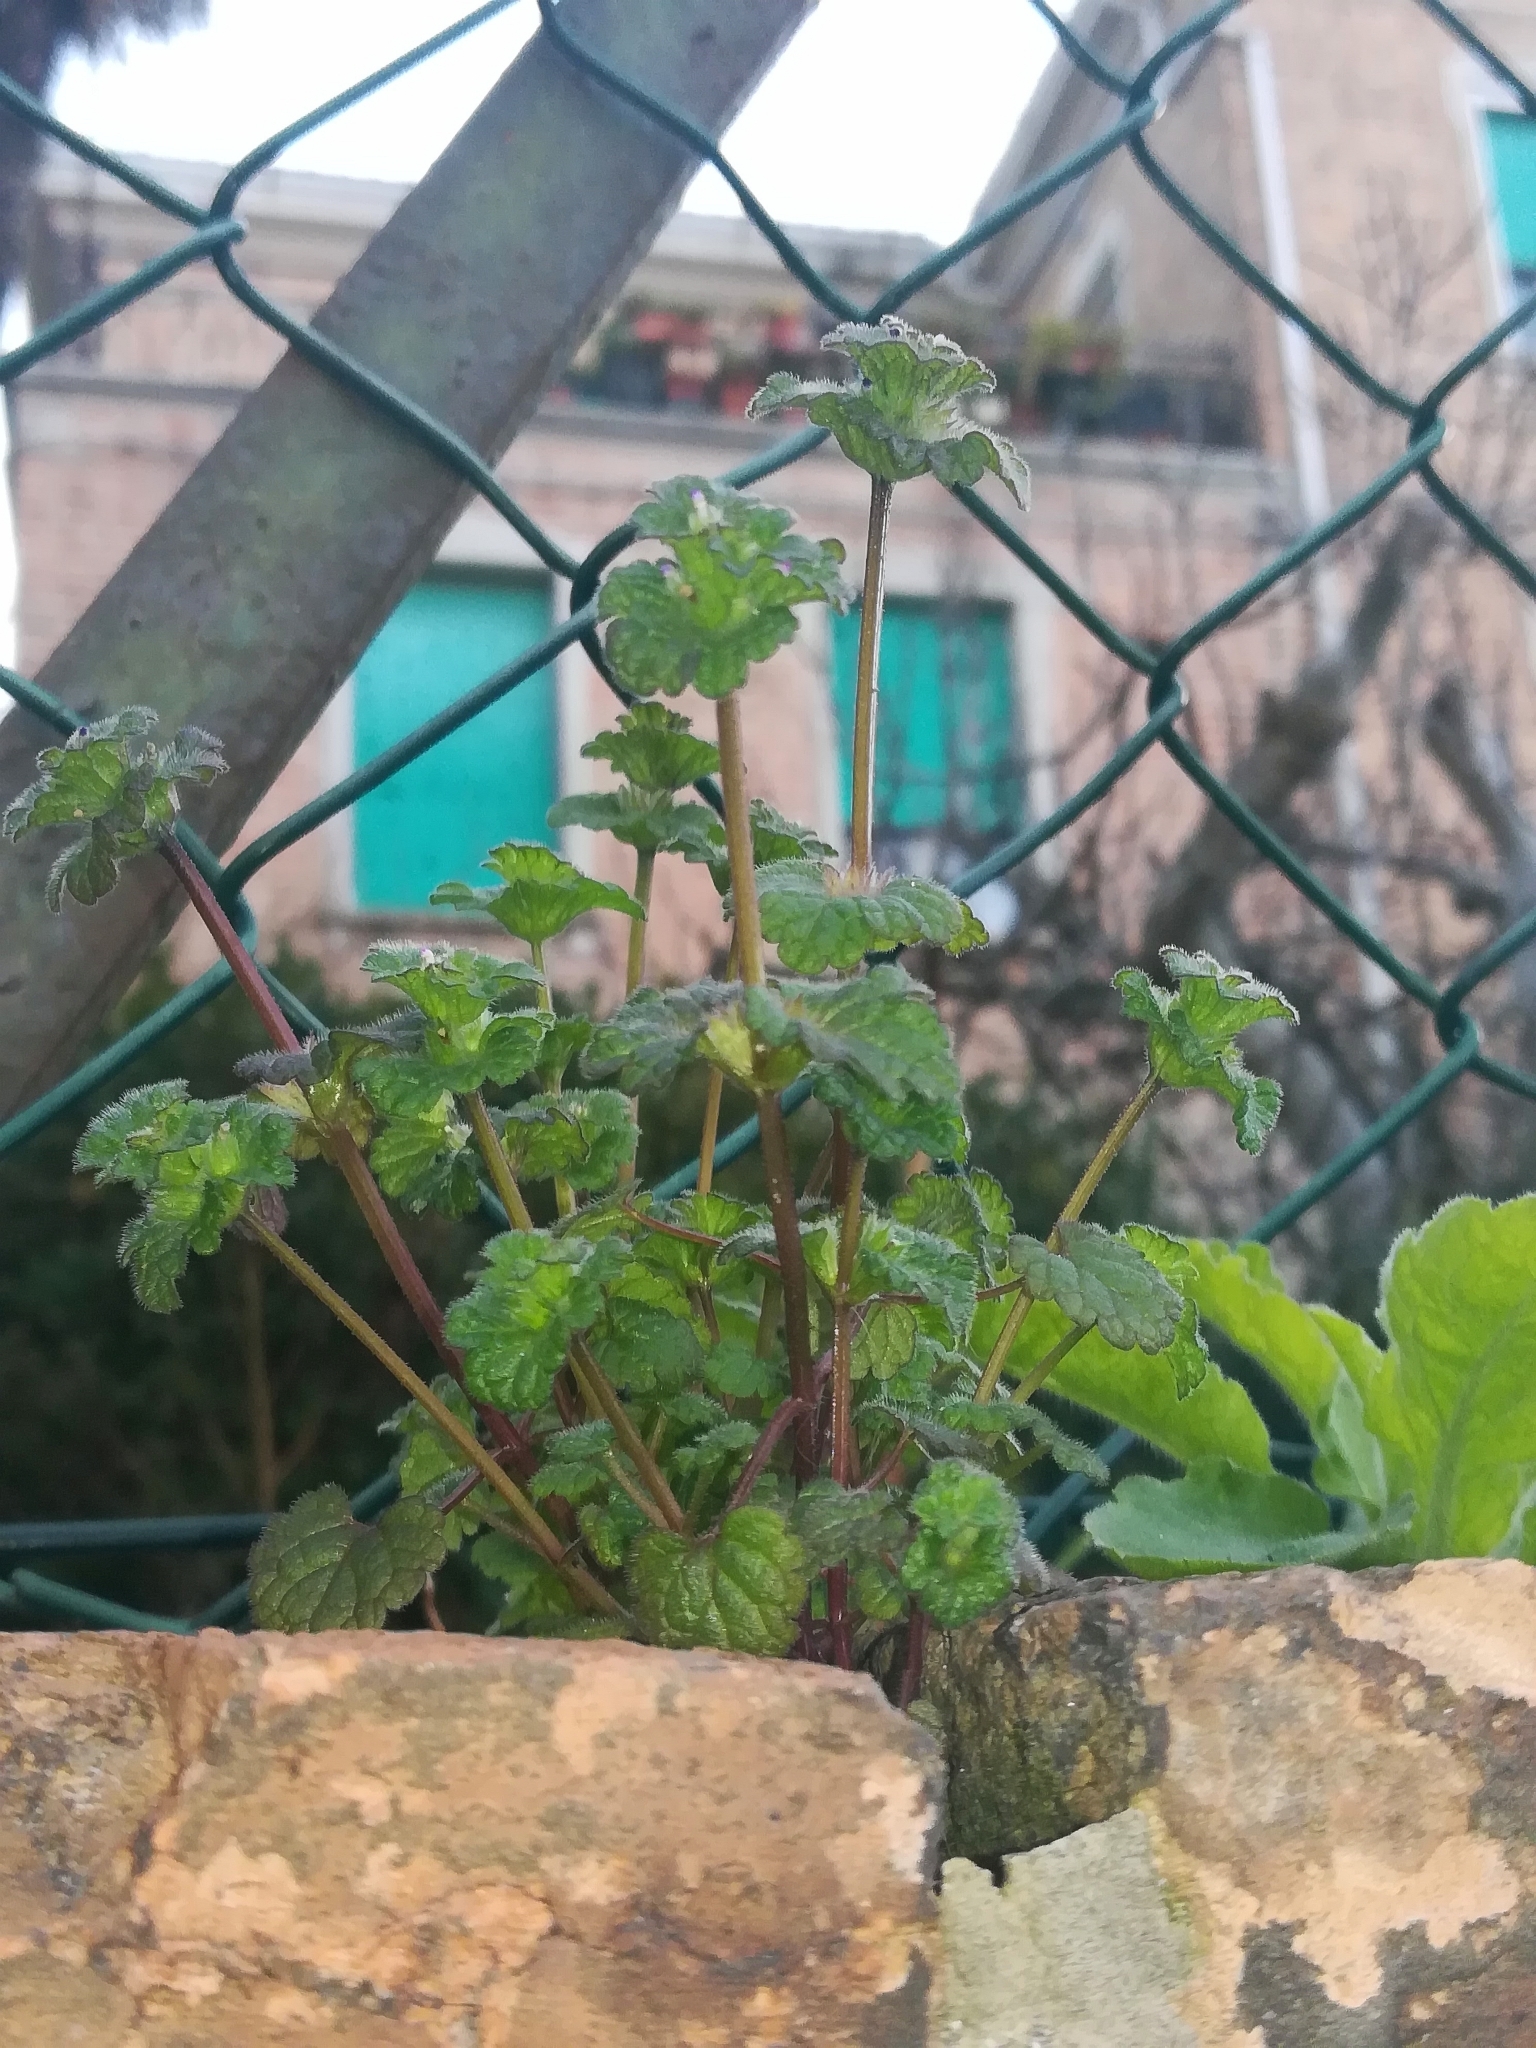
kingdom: Plantae
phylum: Tracheophyta
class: Magnoliopsida
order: Lamiales
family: Lamiaceae
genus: Lamium
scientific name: Lamium amplexicaule
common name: Henbit dead-nettle
